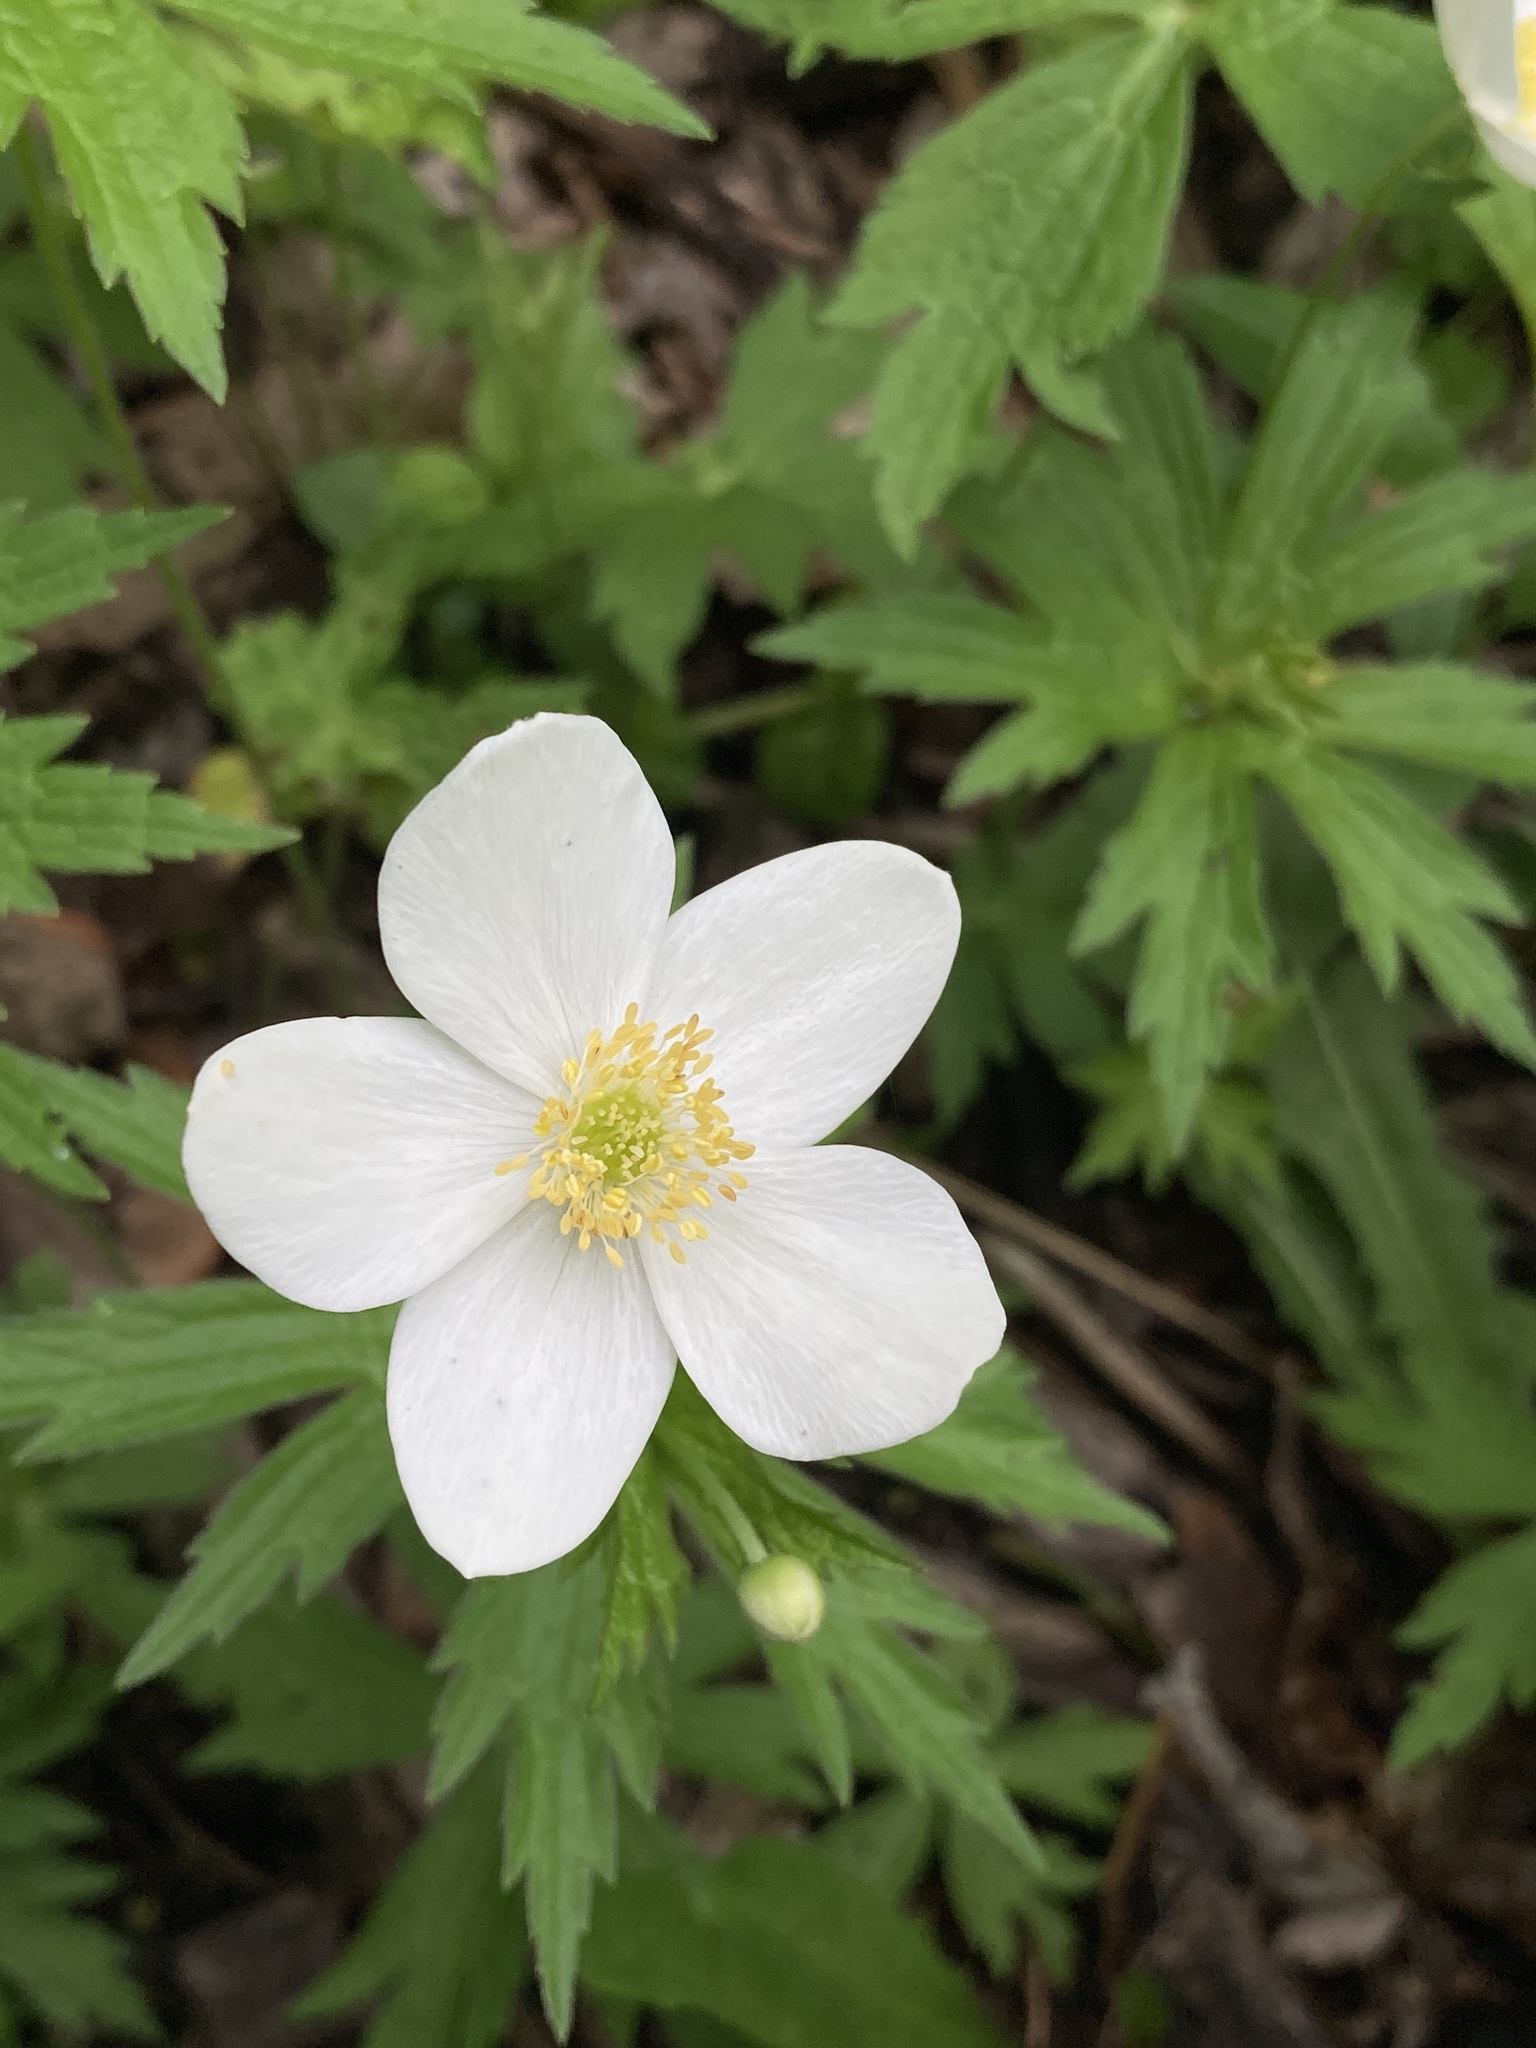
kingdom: Plantae
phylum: Tracheophyta
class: Magnoliopsida
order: Ranunculales
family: Ranunculaceae
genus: Anemonastrum
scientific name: Anemonastrum canadense
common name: Canada anemone
